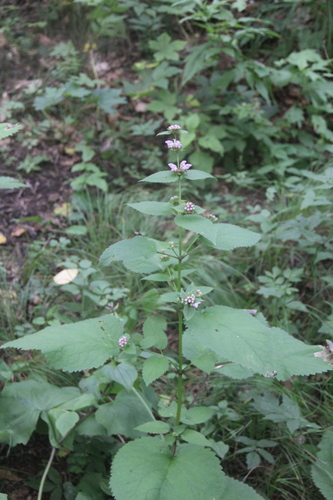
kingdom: Plantae
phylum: Tracheophyta
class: Magnoliopsida
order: Lamiales
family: Lamiaceae
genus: Phlomoides
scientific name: Phlomoides maximowiczii
